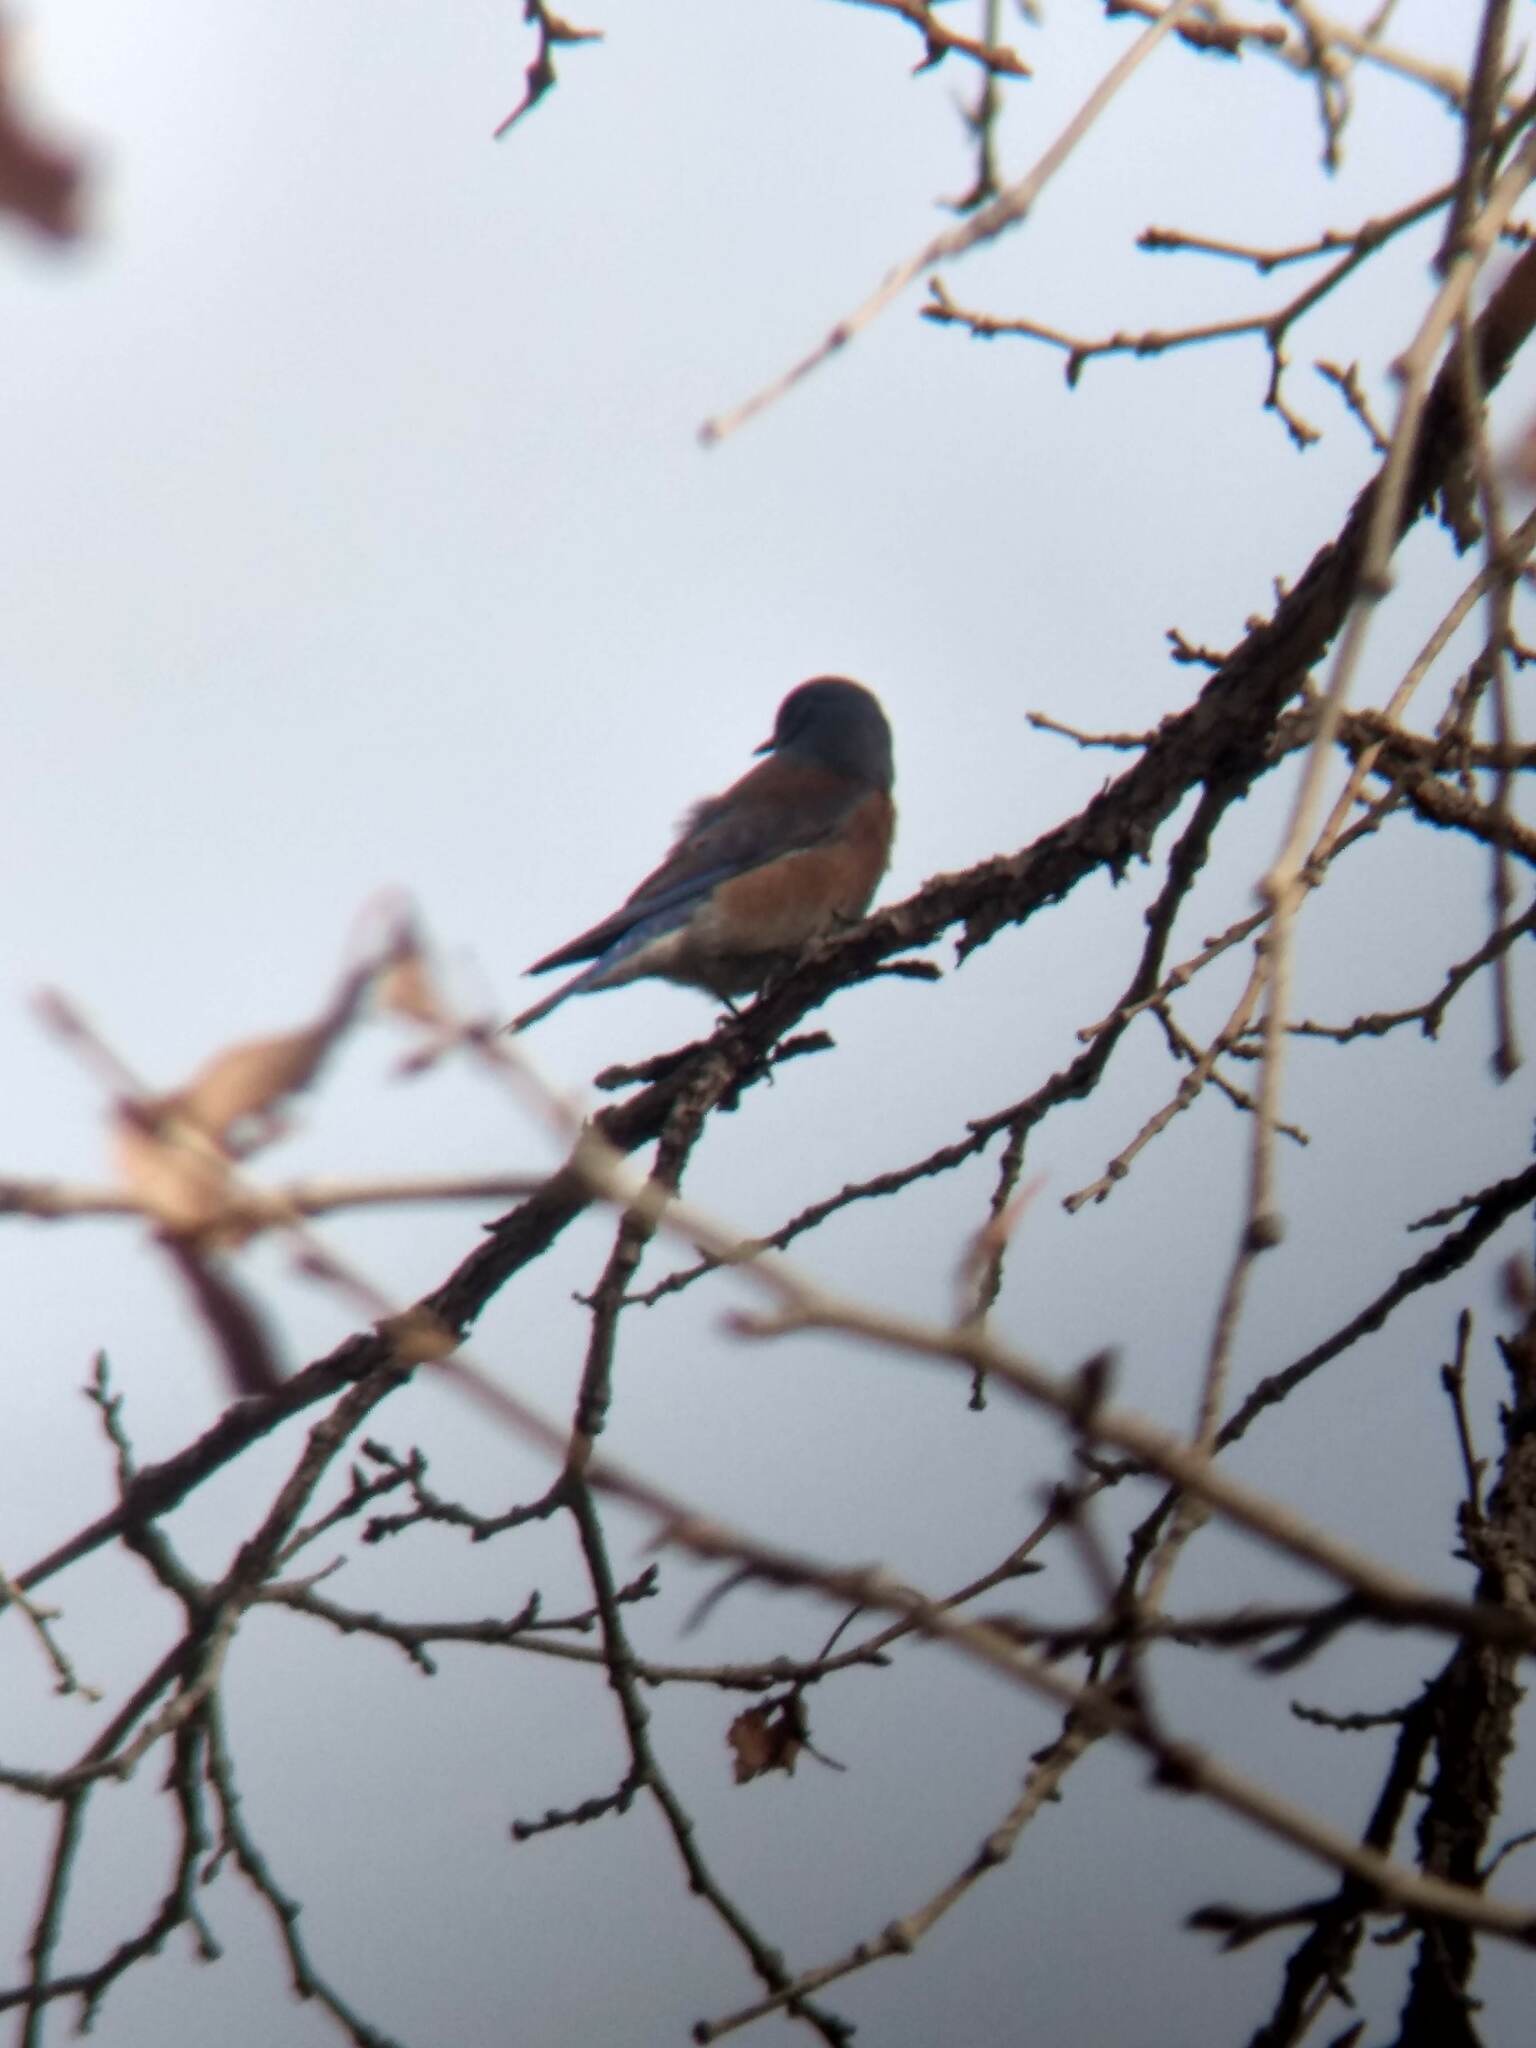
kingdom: Animalia
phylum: Chordata
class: Aves
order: Passeriformes
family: Turdidae
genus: Sialia
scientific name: Sialia mexicana
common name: Western bluebird
